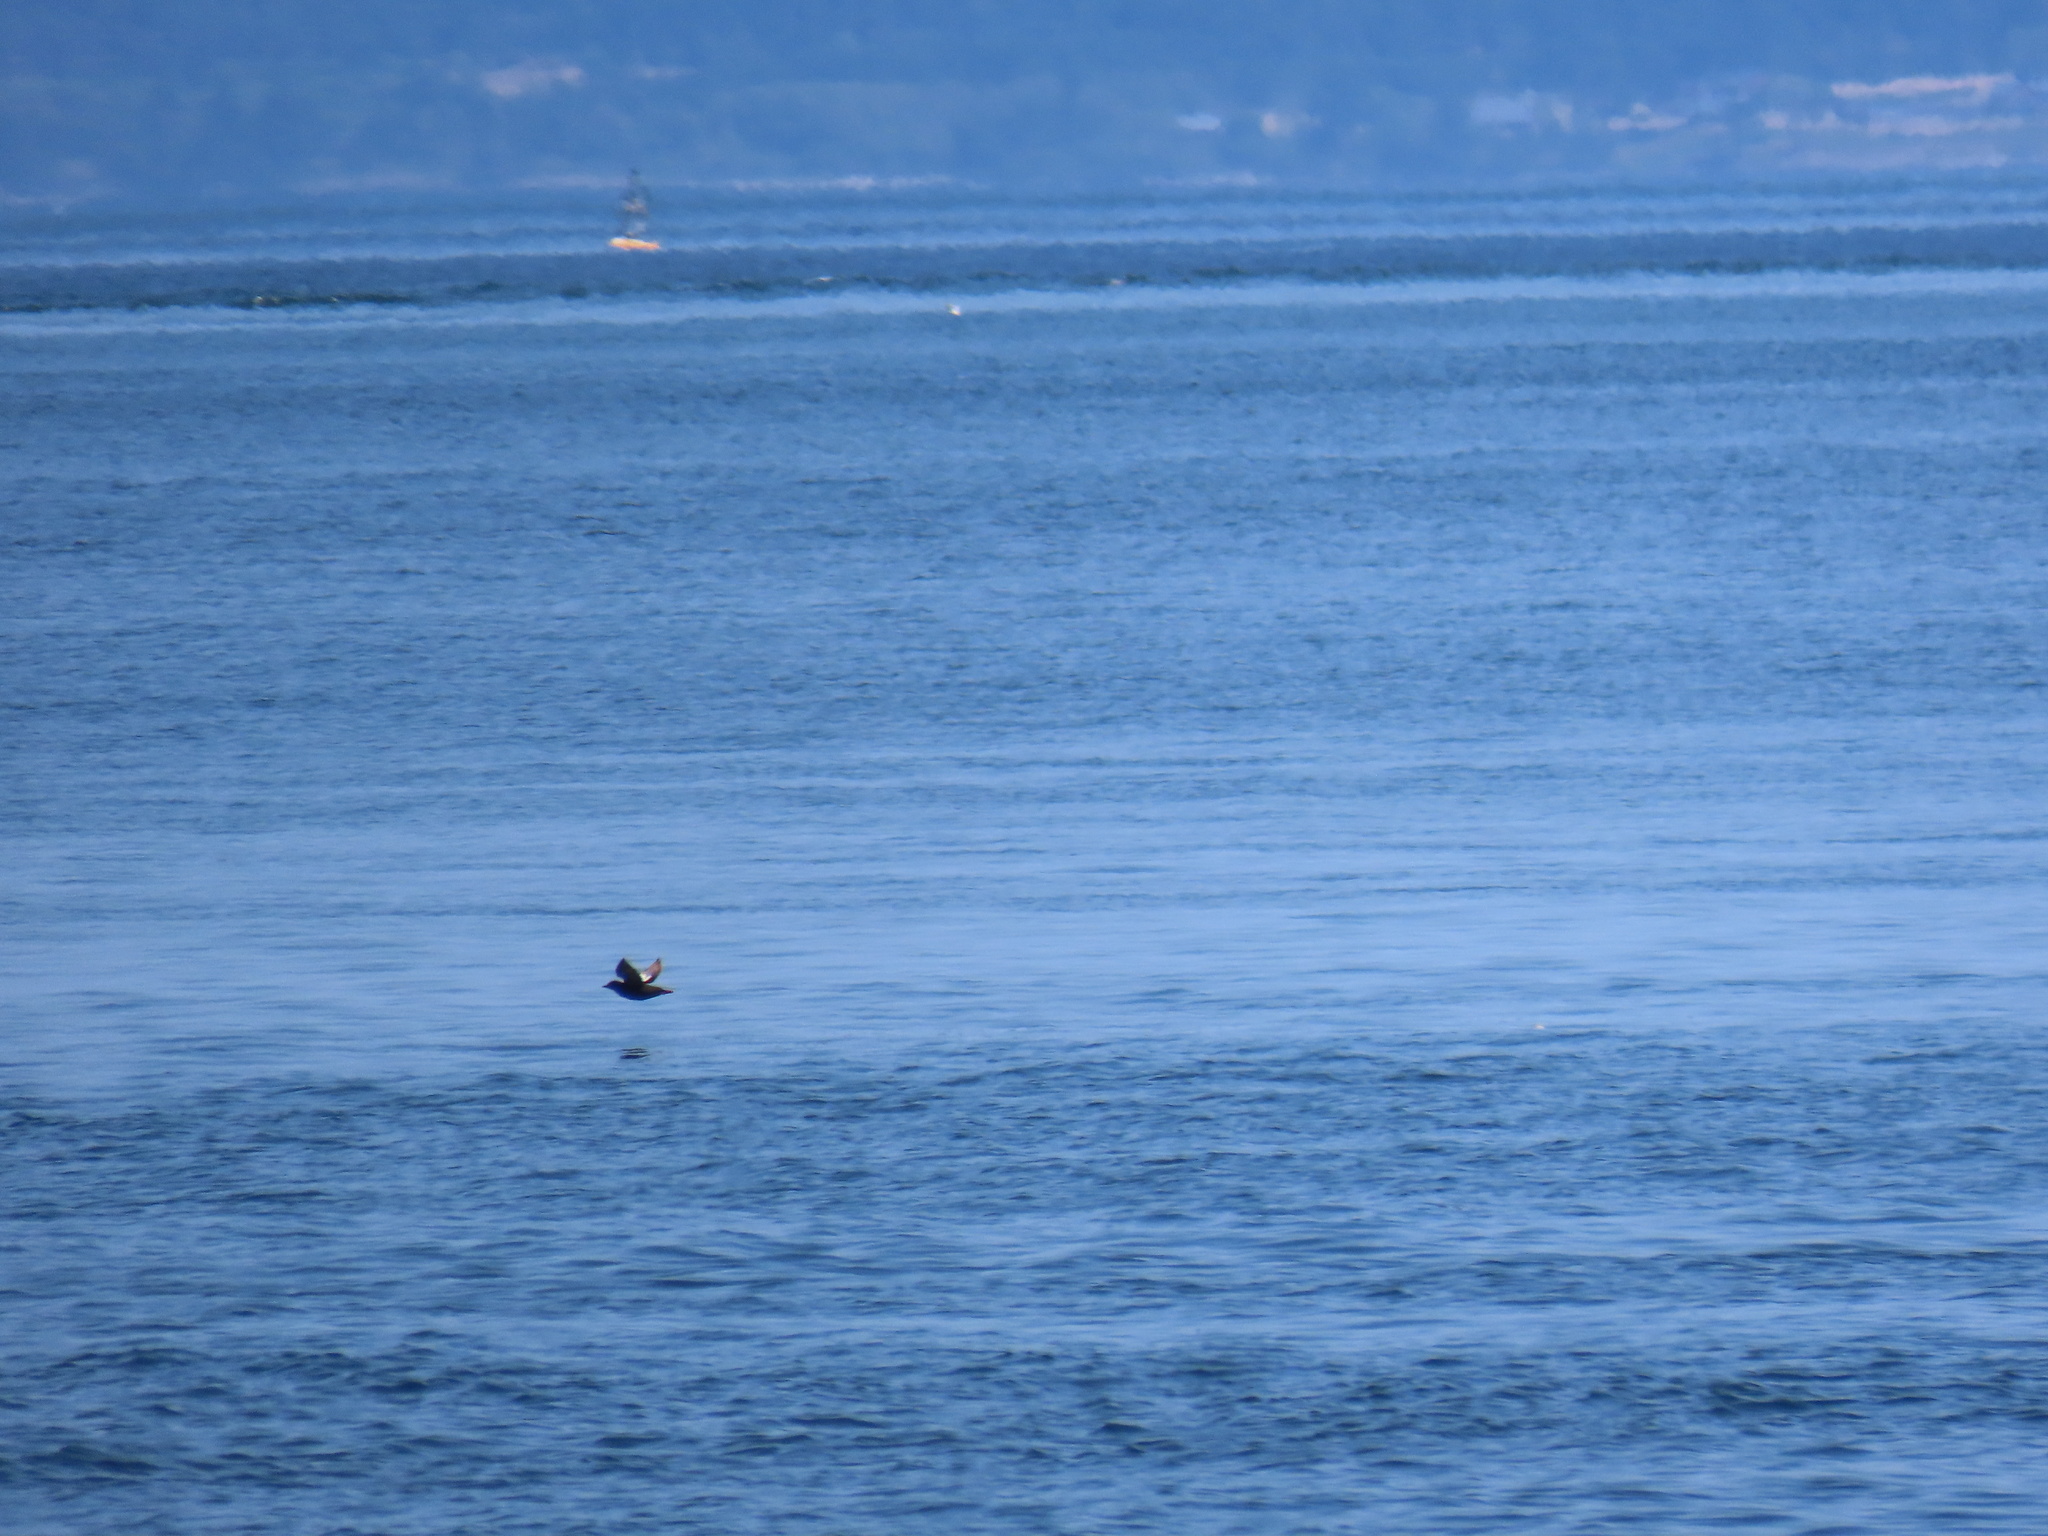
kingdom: Animalia
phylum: Chordata
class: Aves
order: Charadriiformes
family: Alcidae
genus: Cepphus
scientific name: Cepphus columba
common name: Pigeon guillemot
